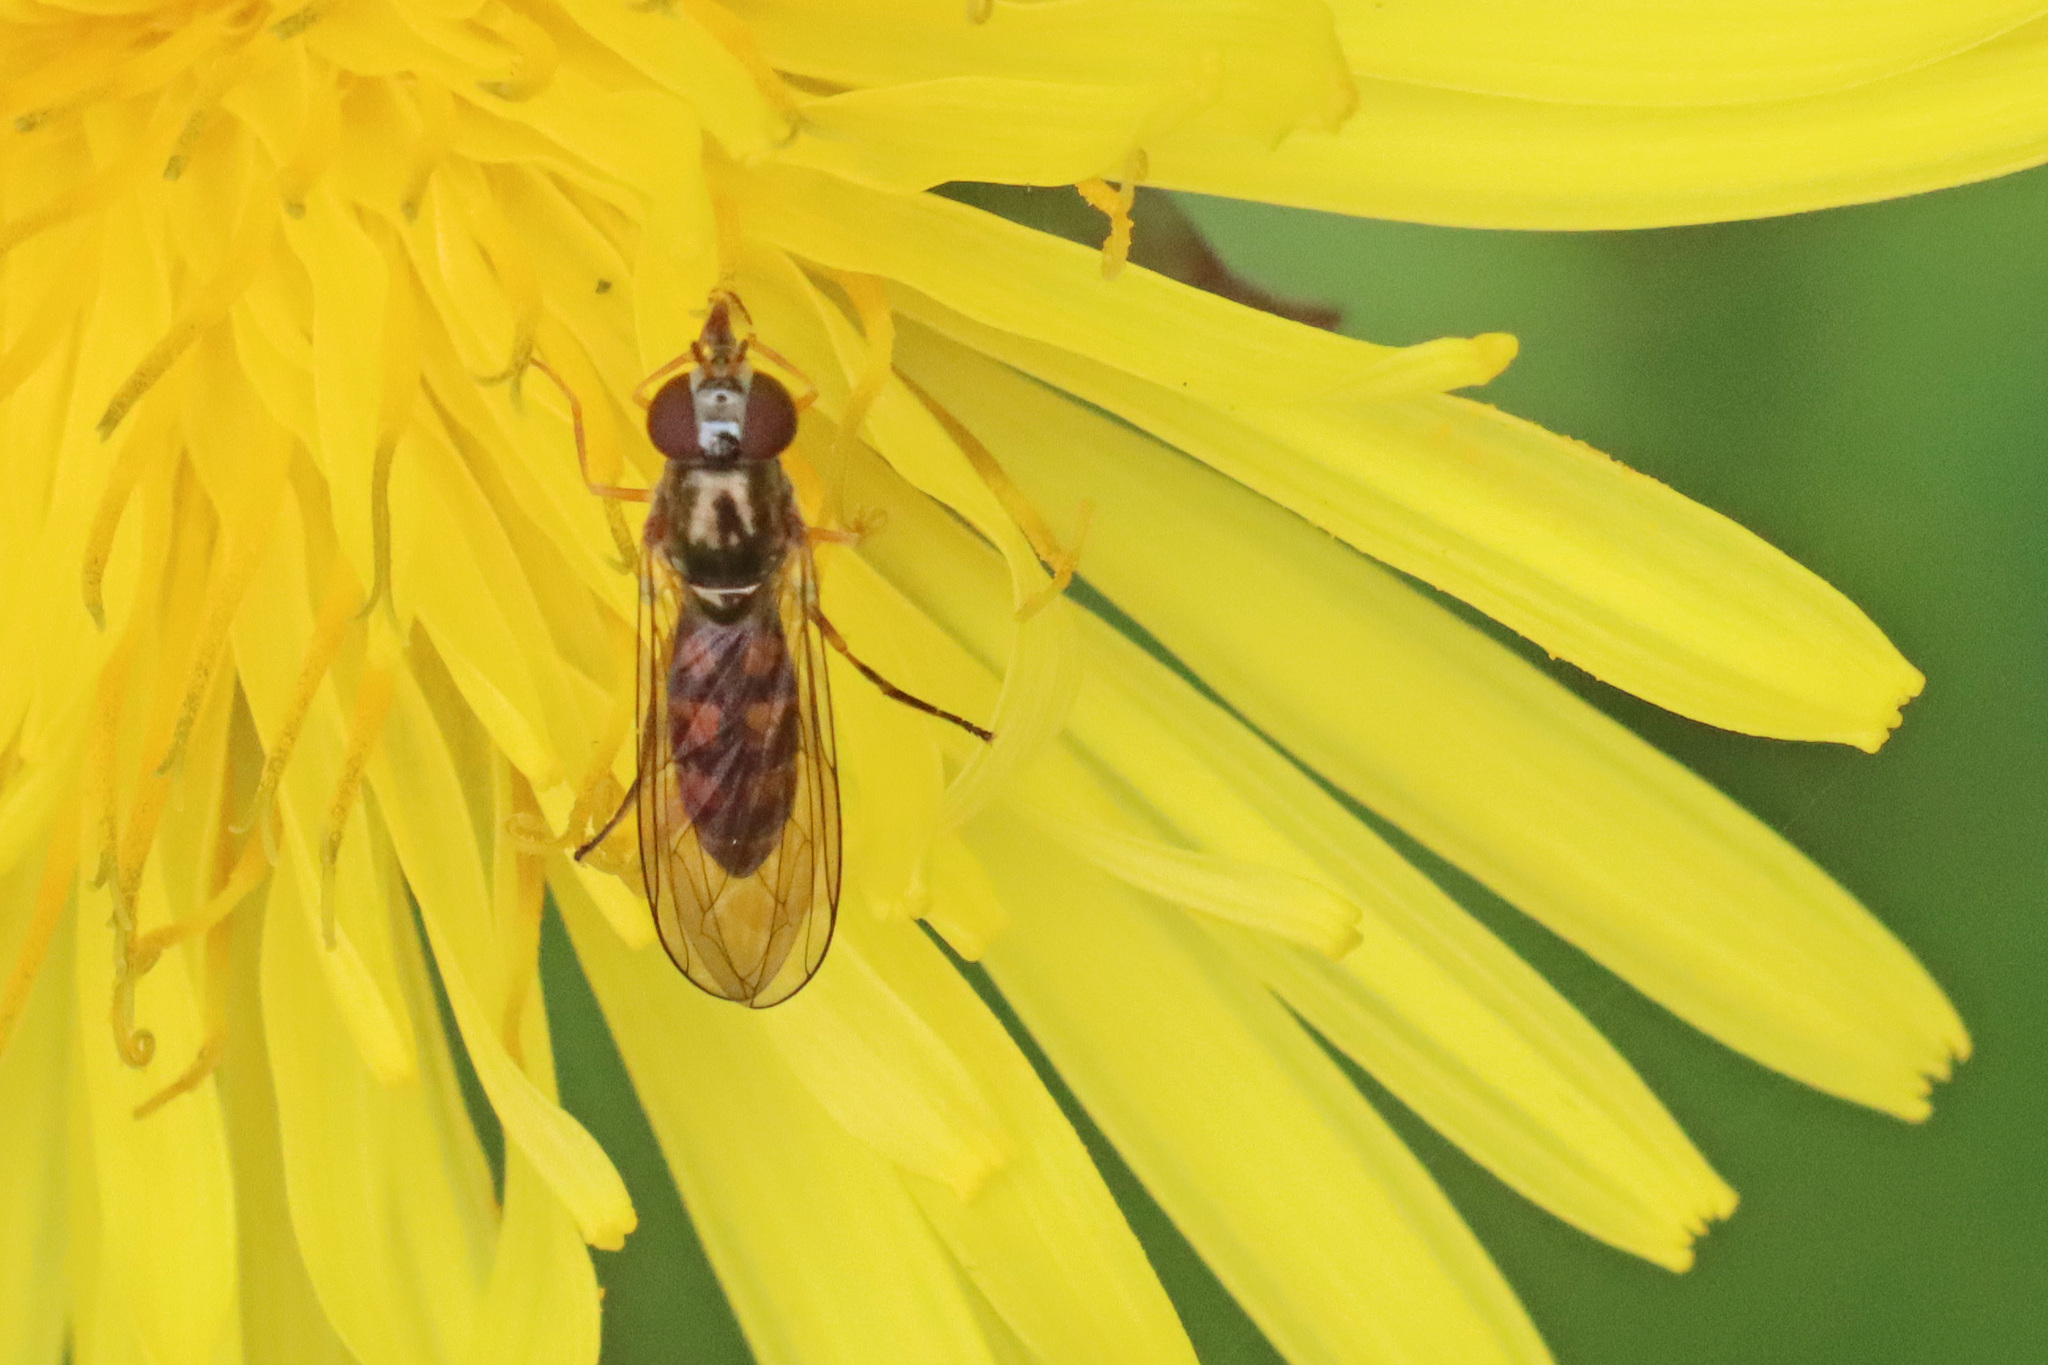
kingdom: Animalia
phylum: Arthropoda
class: Insecta
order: Diptera
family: Syrphidae
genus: Melanostoma
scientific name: Melanostoma scalare
